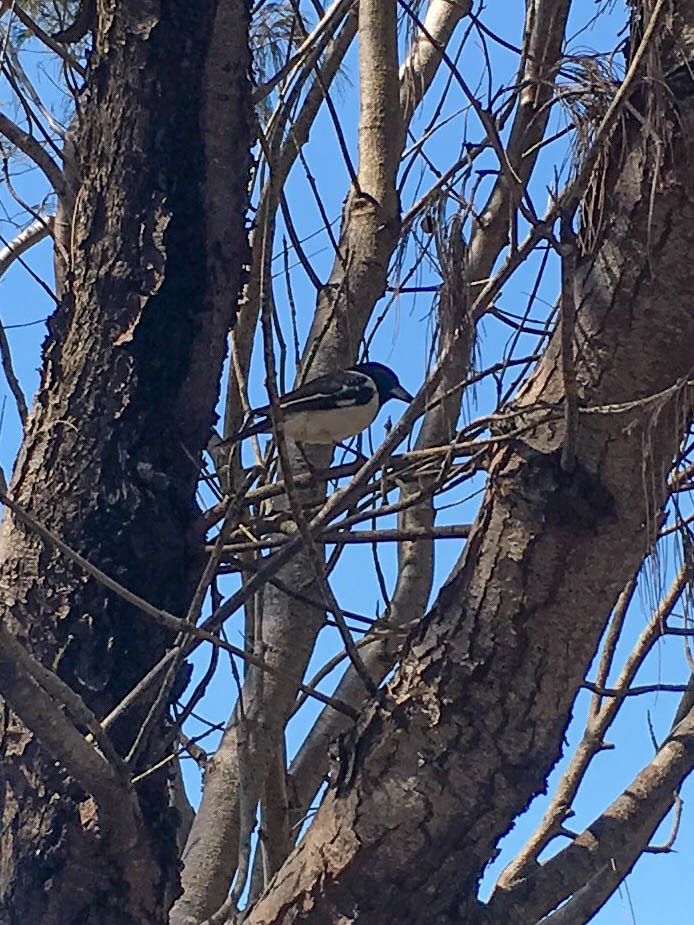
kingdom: Animalia
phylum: Chordata
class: Aves
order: Passeriformes
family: Cracticidae
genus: Cracticus
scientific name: Cracticus nigrogularis
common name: Pied butcherbird
